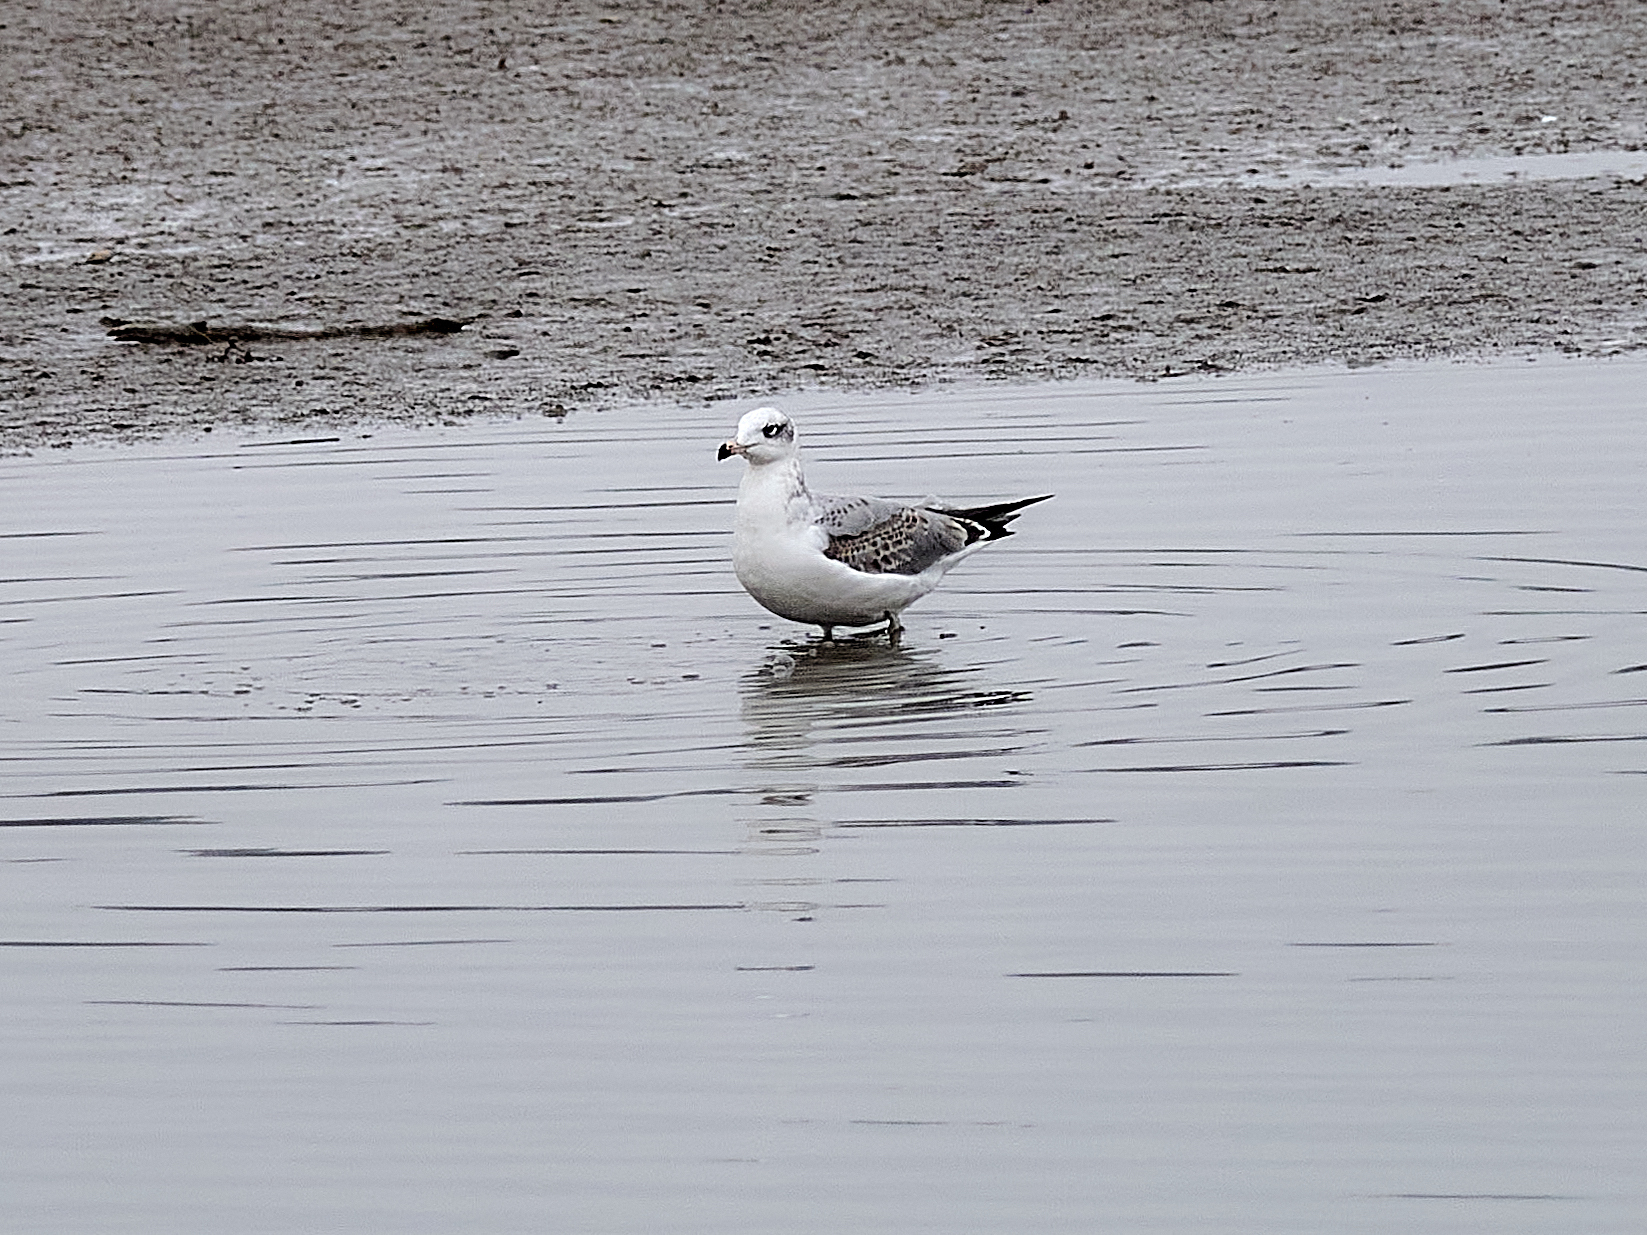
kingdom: Animalia
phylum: Chordata
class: Aves
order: Charadriiformes
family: Laridae
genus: Ichthyaetus
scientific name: Ichthyaetus ichthyaetus
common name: Pallas's gull
